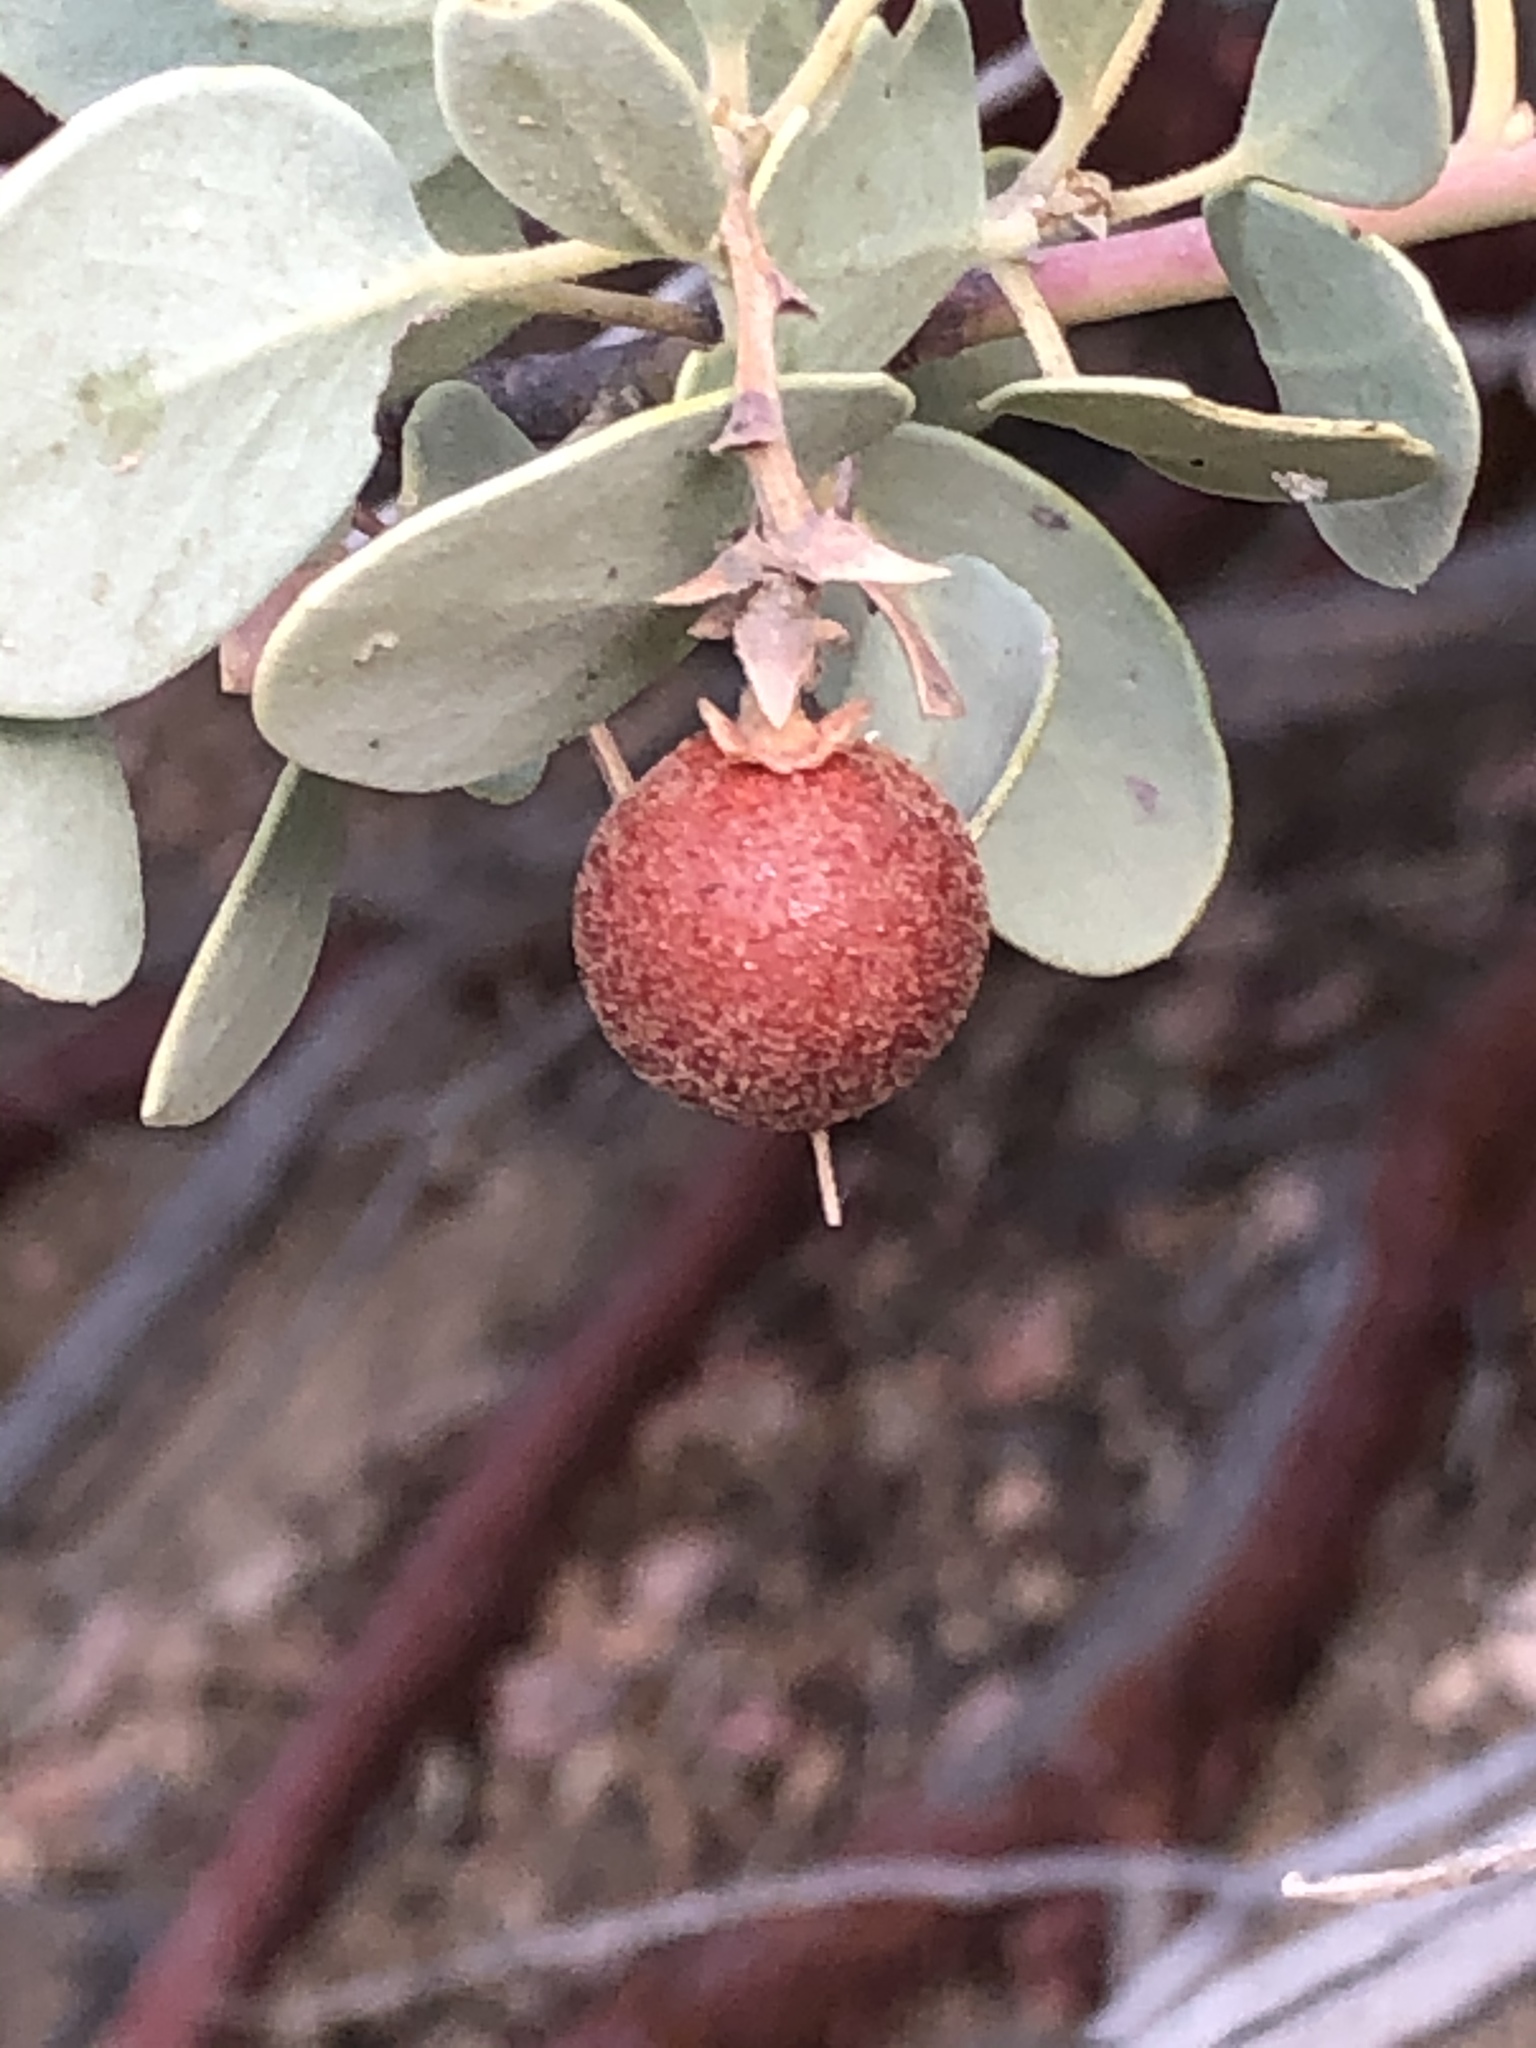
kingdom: Plantae
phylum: Tracheophyta
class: Magnoliopsida
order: Ericales
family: Ericaceae
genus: Arctostaphylos
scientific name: Arctostaphylos glauca
